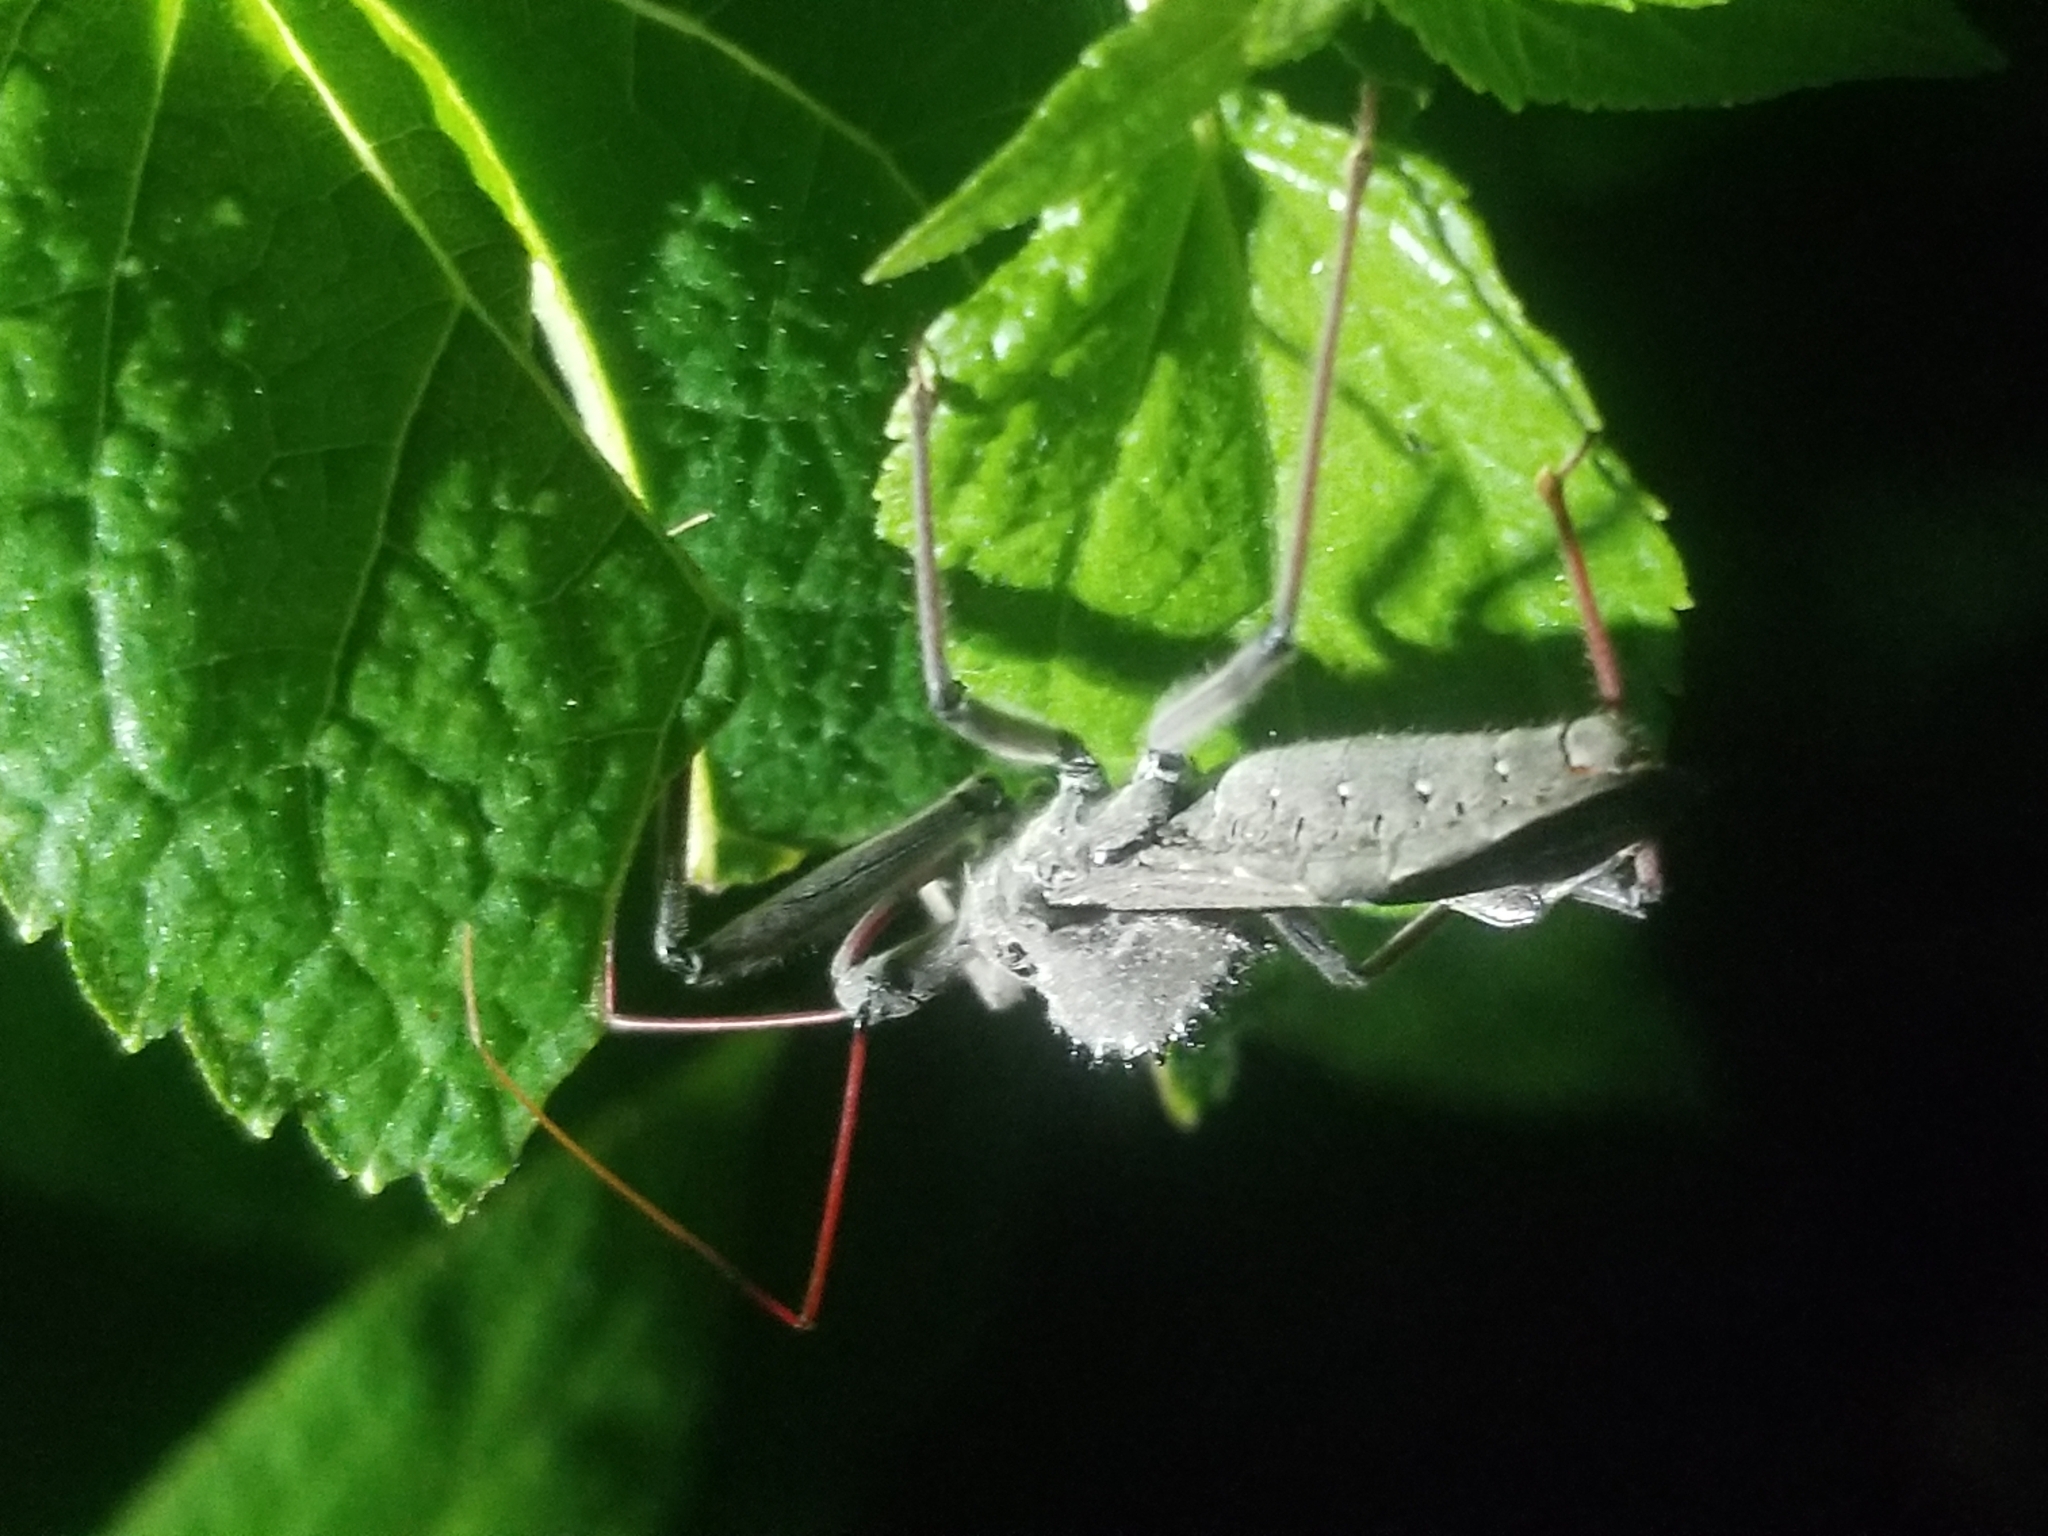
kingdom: Animalia
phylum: Arthropoda
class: Insecta
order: Hemiptera
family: Reduviidae
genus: Arilus
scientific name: Arilus cristatus
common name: North american wheel bug
